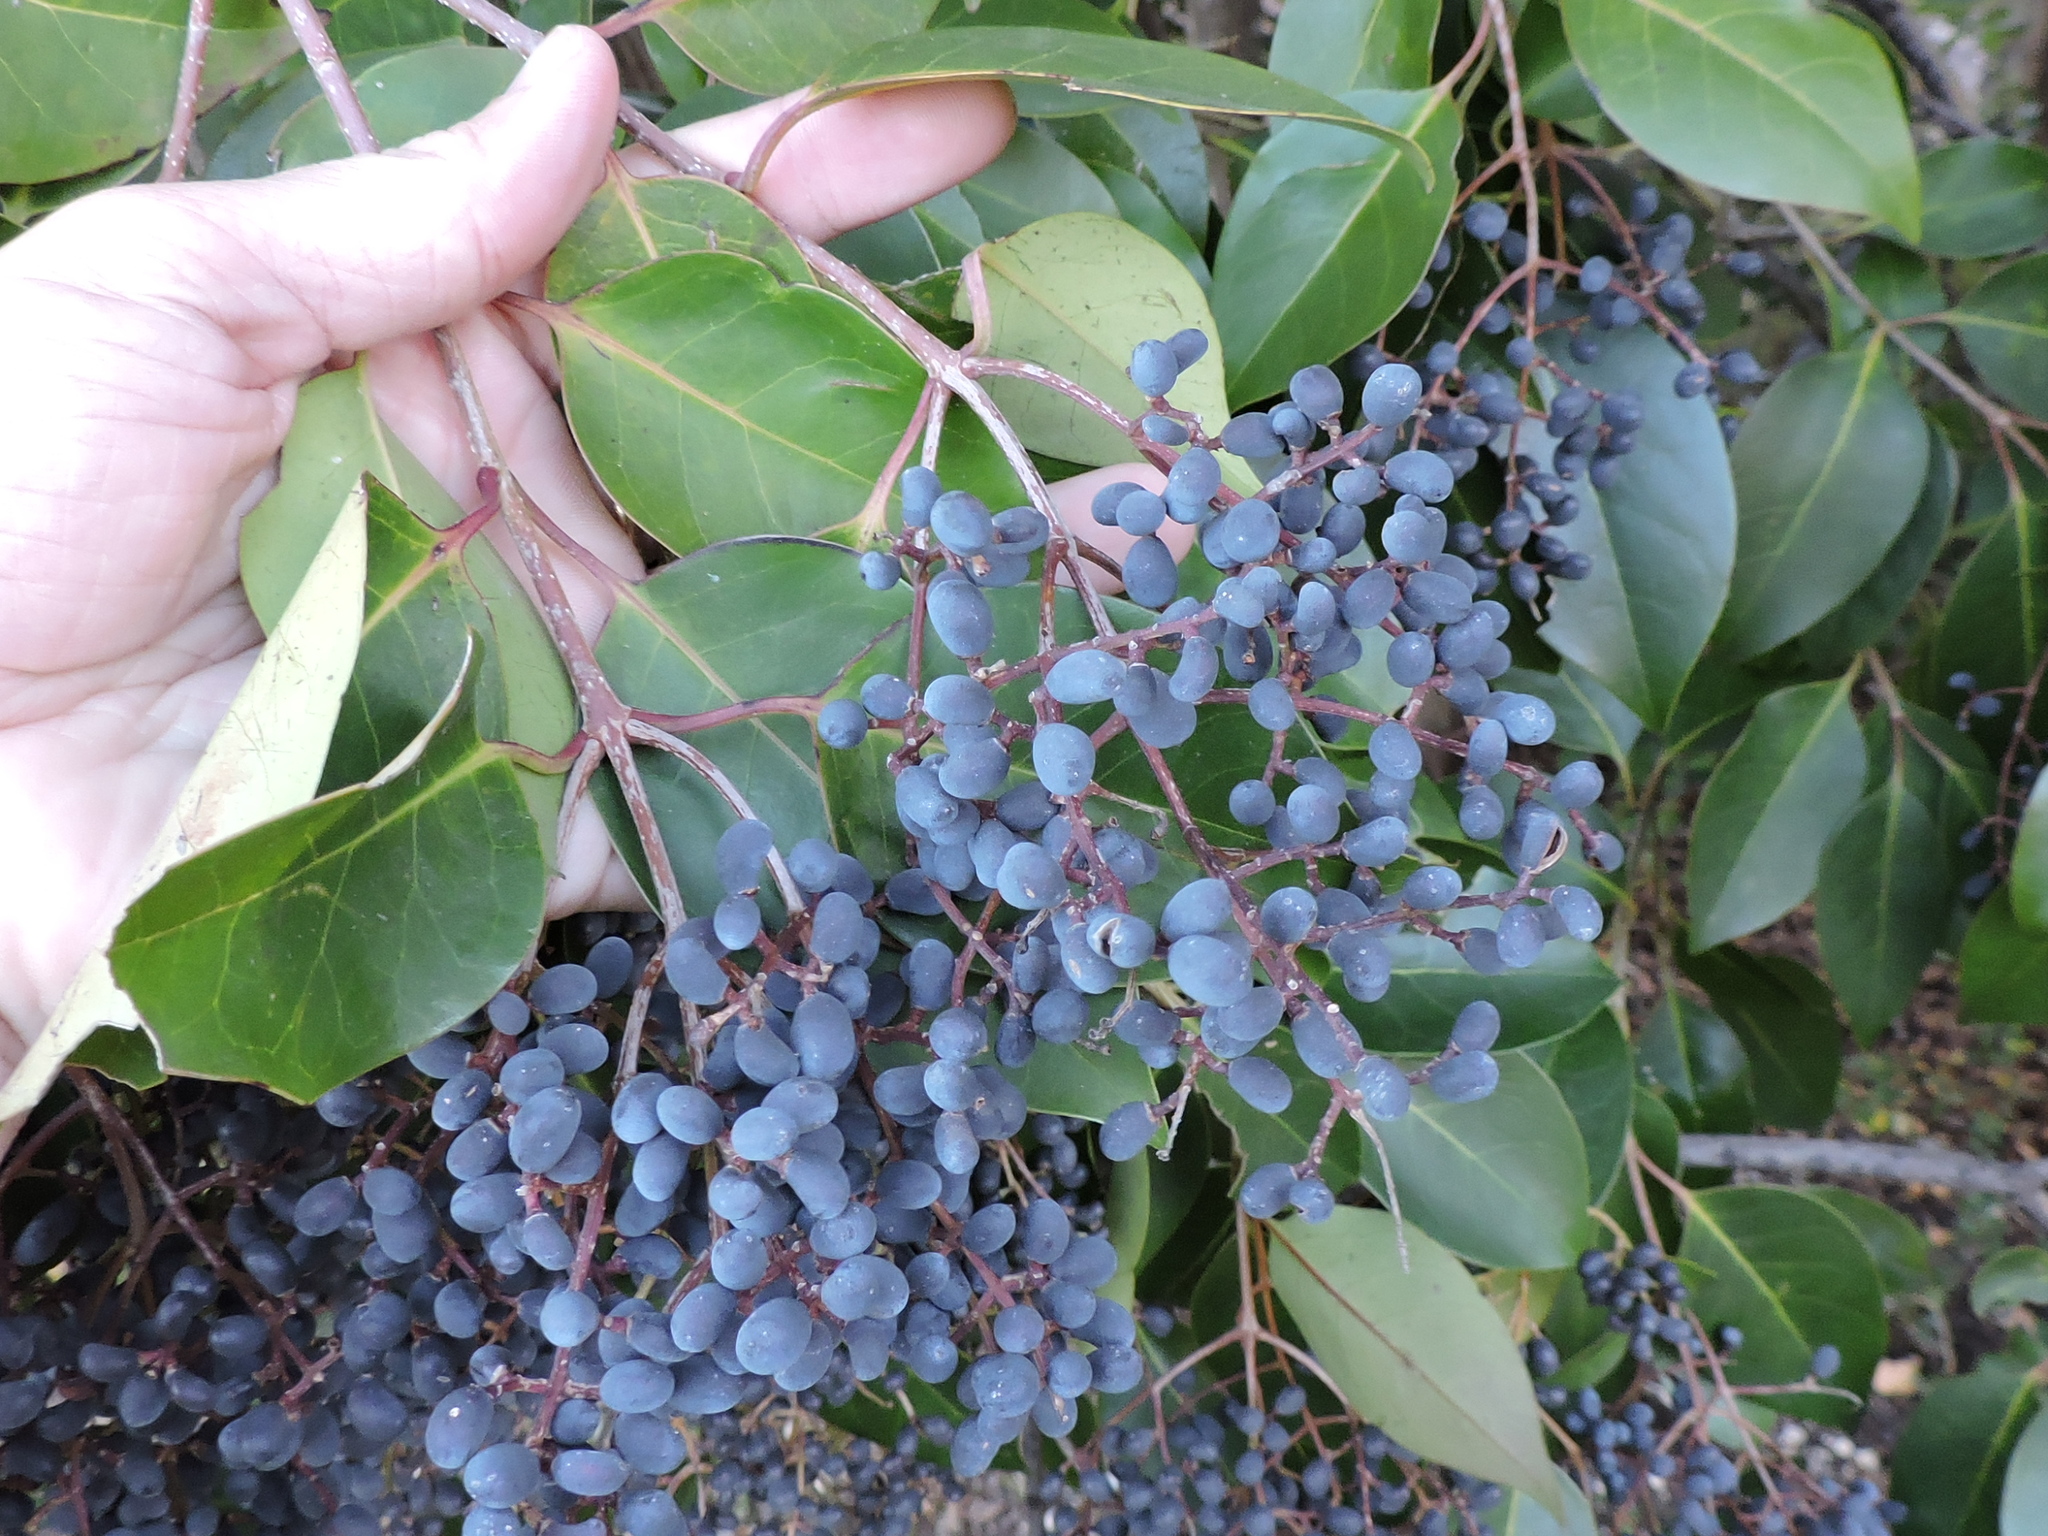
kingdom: Plantae
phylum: Tracheophyta
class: Magnoliopsida
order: Lamiales
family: Oleaceae
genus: Ligustrum
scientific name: Ligustrum lucidum
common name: Glossy privet
